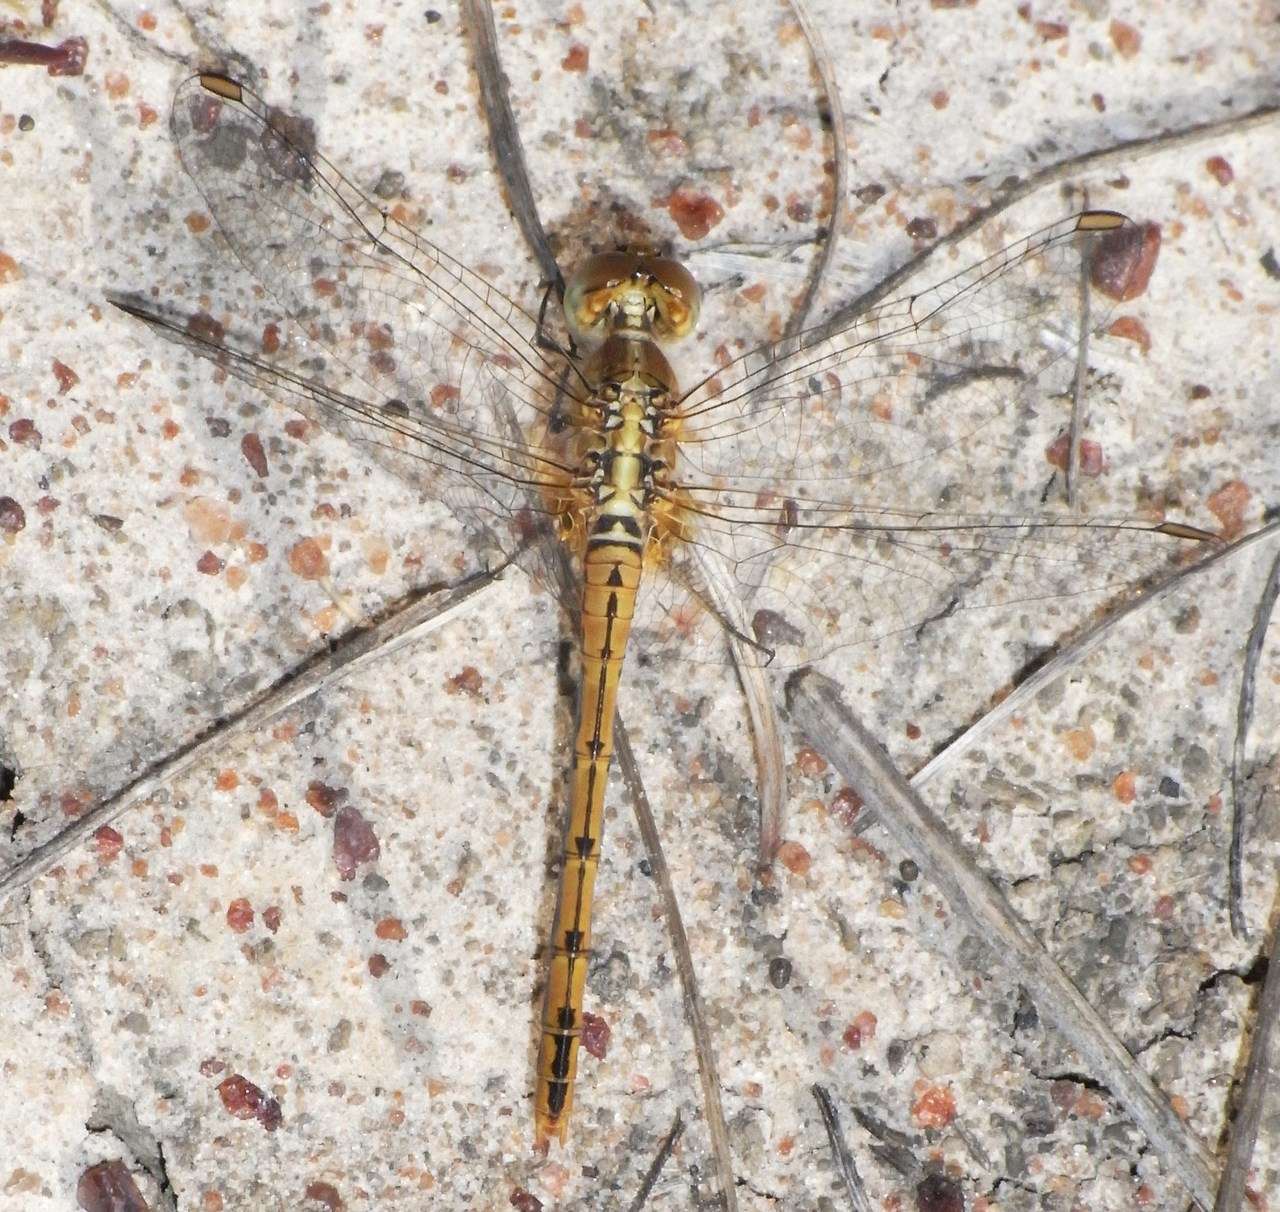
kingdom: Animalia
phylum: Arthropoda
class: Insecta
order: Odonata
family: Libellulidae
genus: Diplacodes
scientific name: Diplacodes bipunctata
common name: Red percher dragonfly
